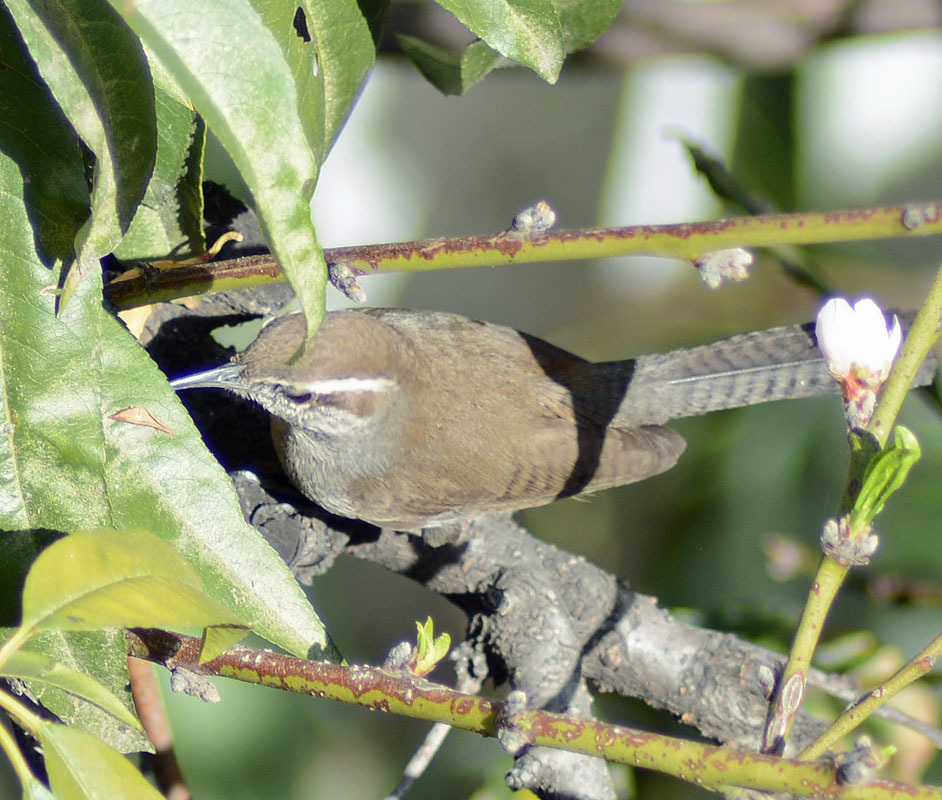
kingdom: Animalia
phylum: Chordata
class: Aves
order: Passeriformes
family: Troglodytidae
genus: Thryomanes
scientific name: Thryomanes bewickii
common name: Bewick's wren
